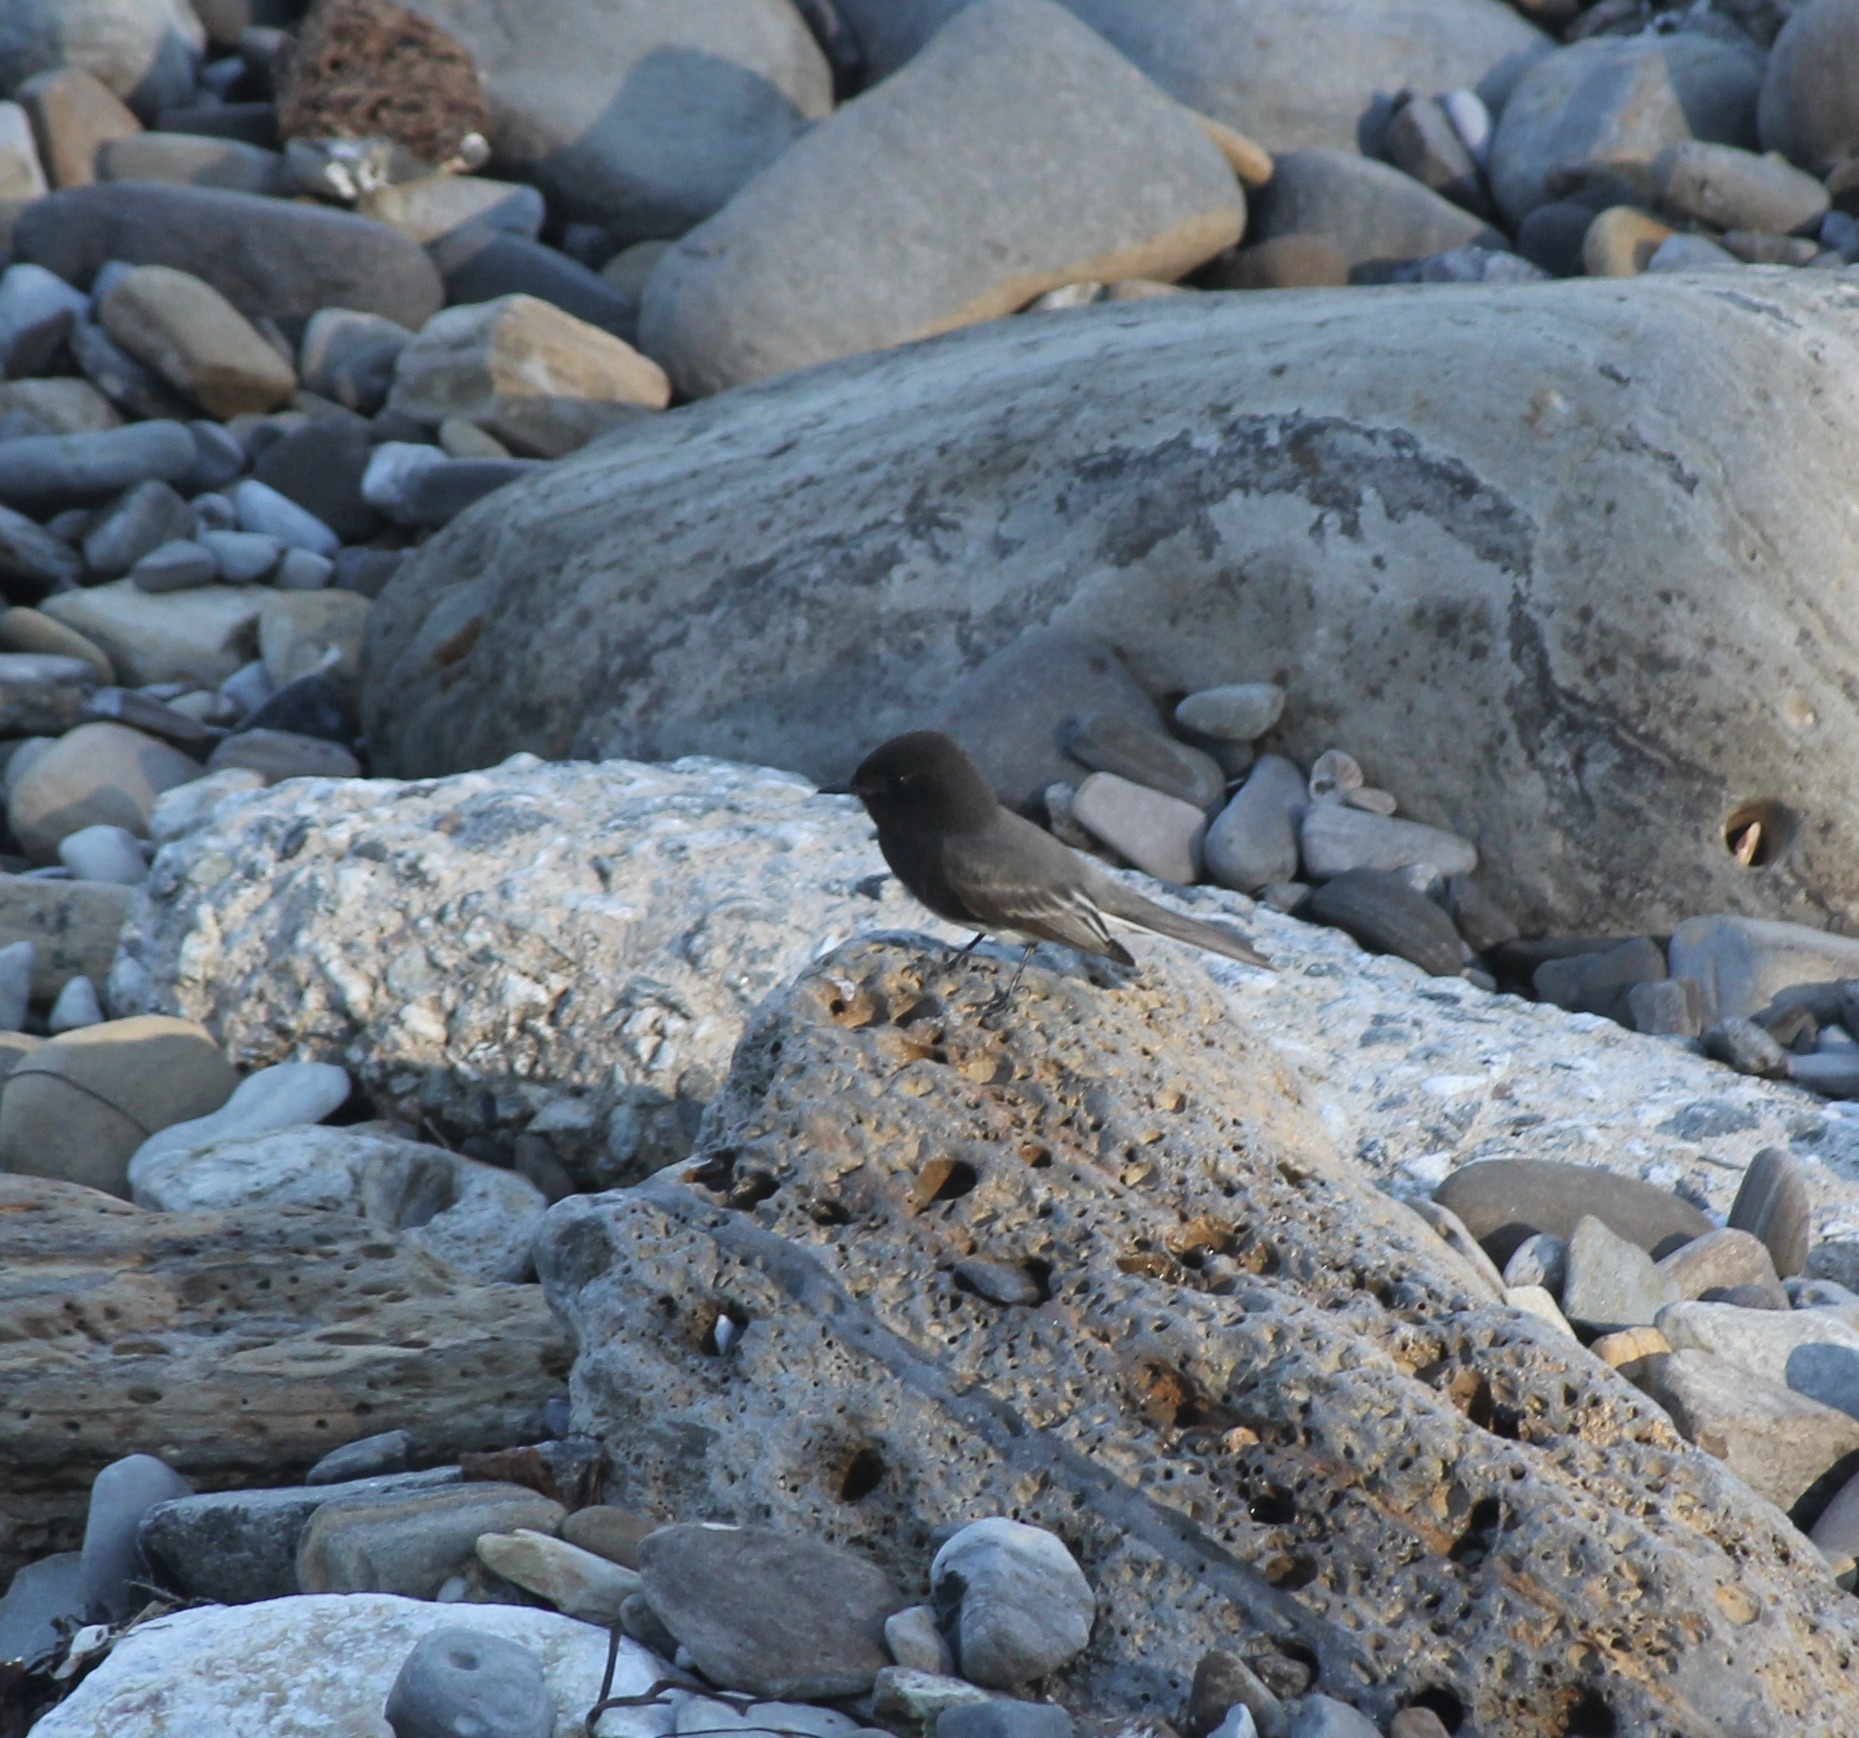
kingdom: Animalia
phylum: Chordata
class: Aves
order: Passeriformes
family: Tyrannidae
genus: Sayornis
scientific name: Sayornis nigricans
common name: Black phoebe
